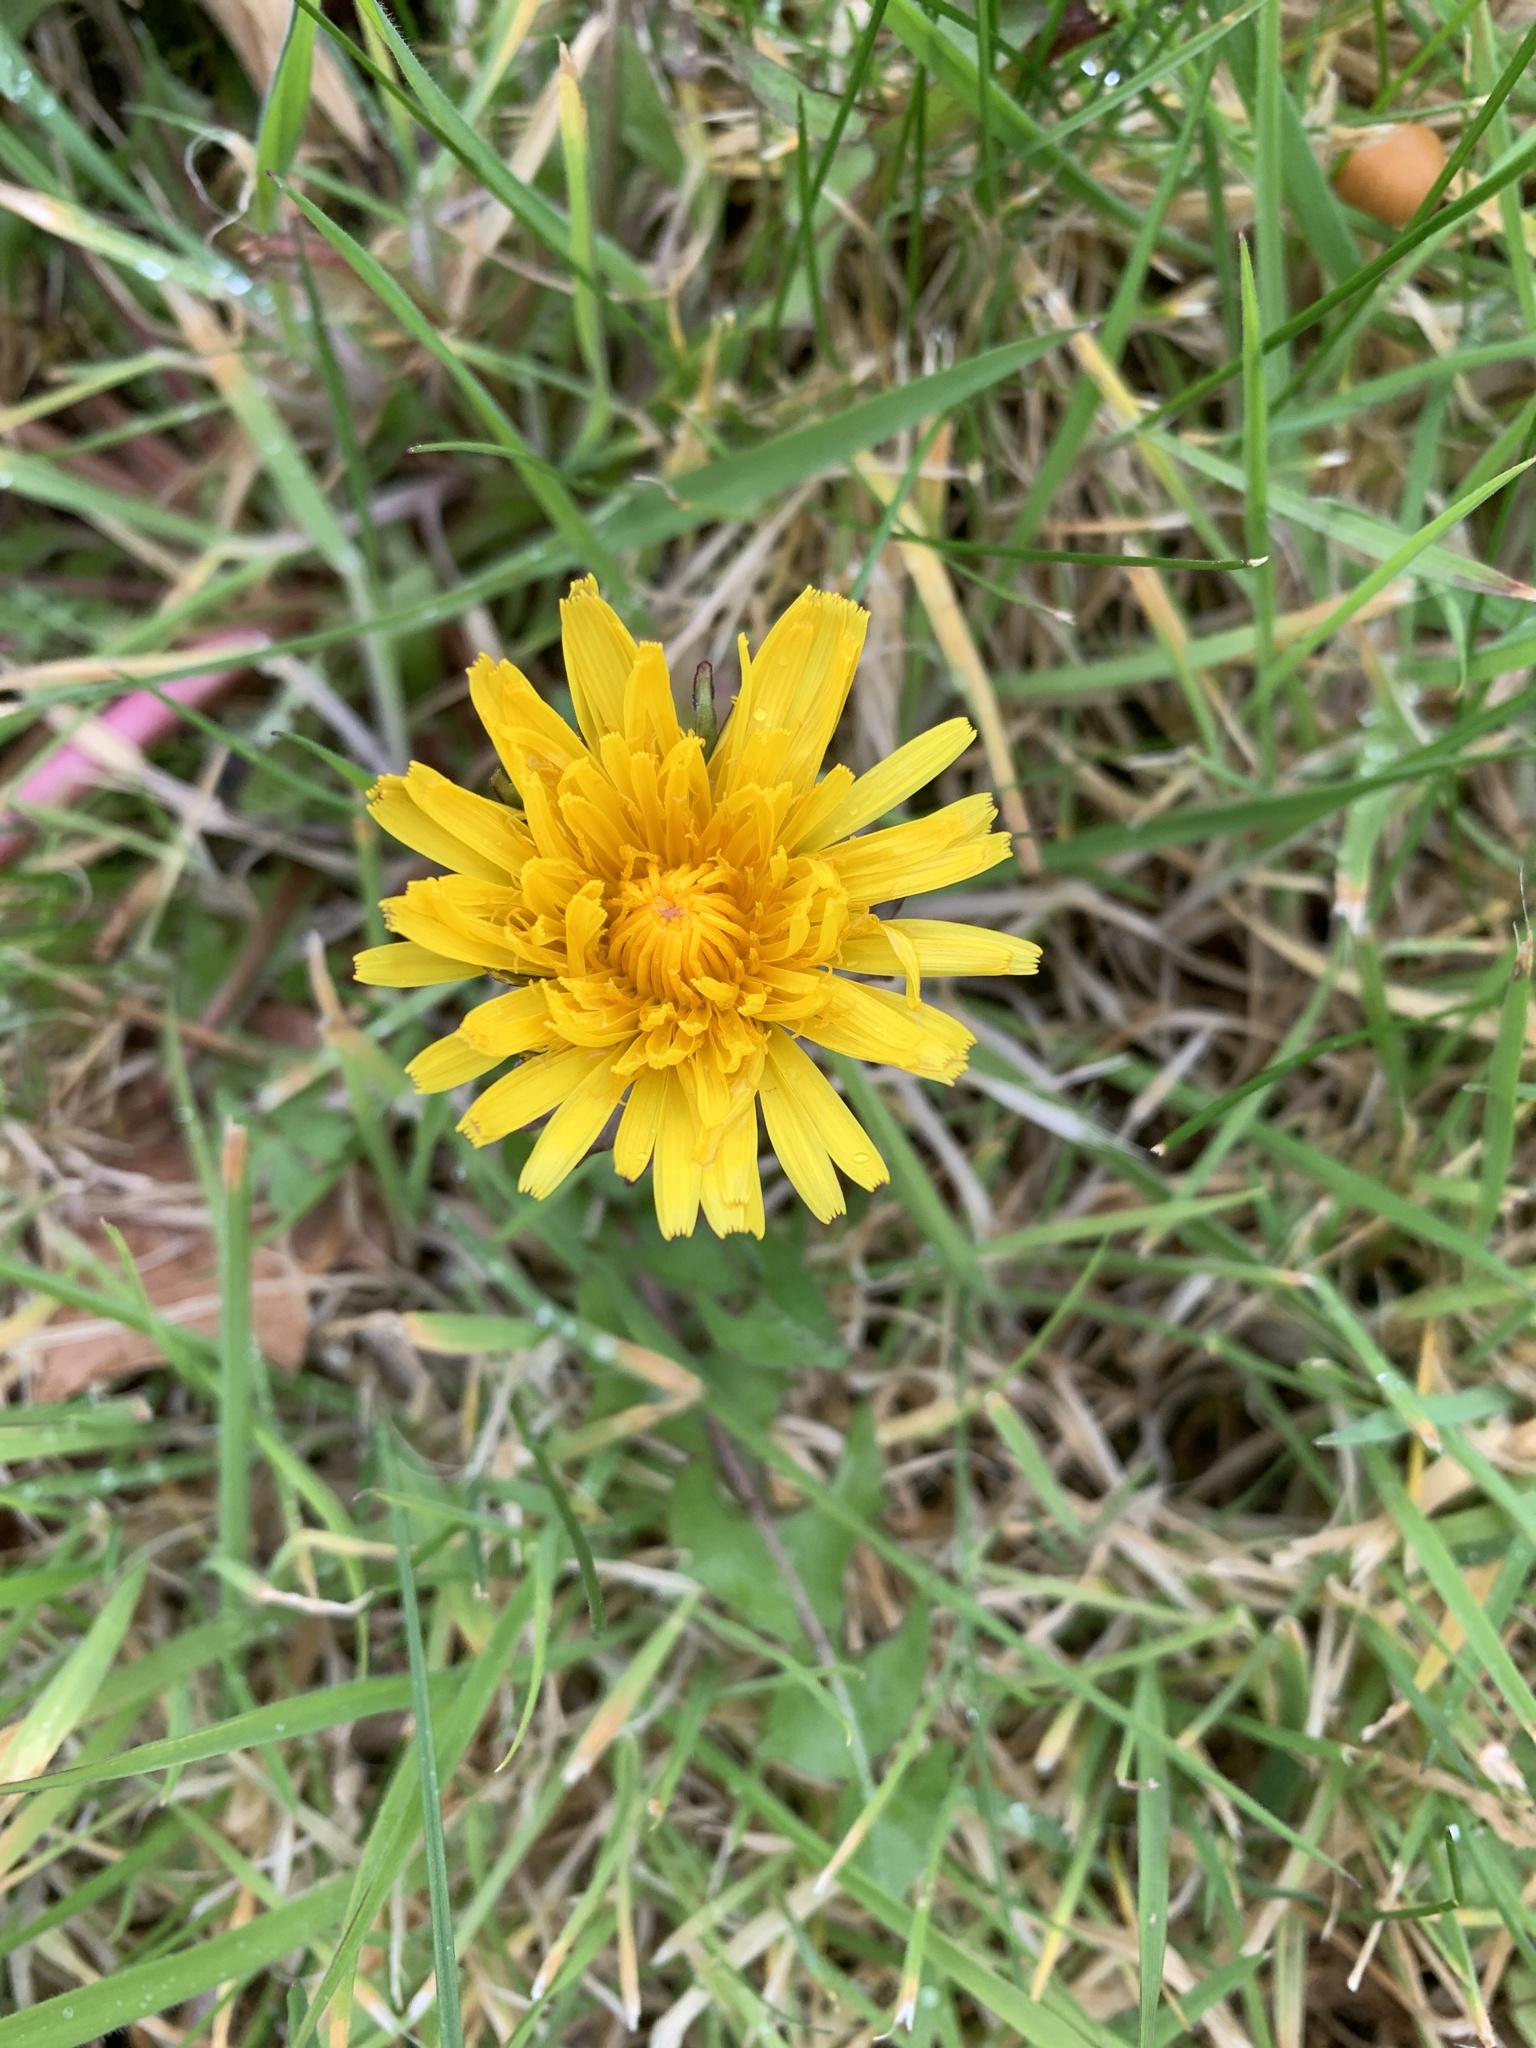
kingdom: Plantae
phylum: Tracheophyta
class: Magnoliopsida
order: Asterales
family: Asteraceae
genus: Taraxacum
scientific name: Taraxacum officinale
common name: Common dandelion
